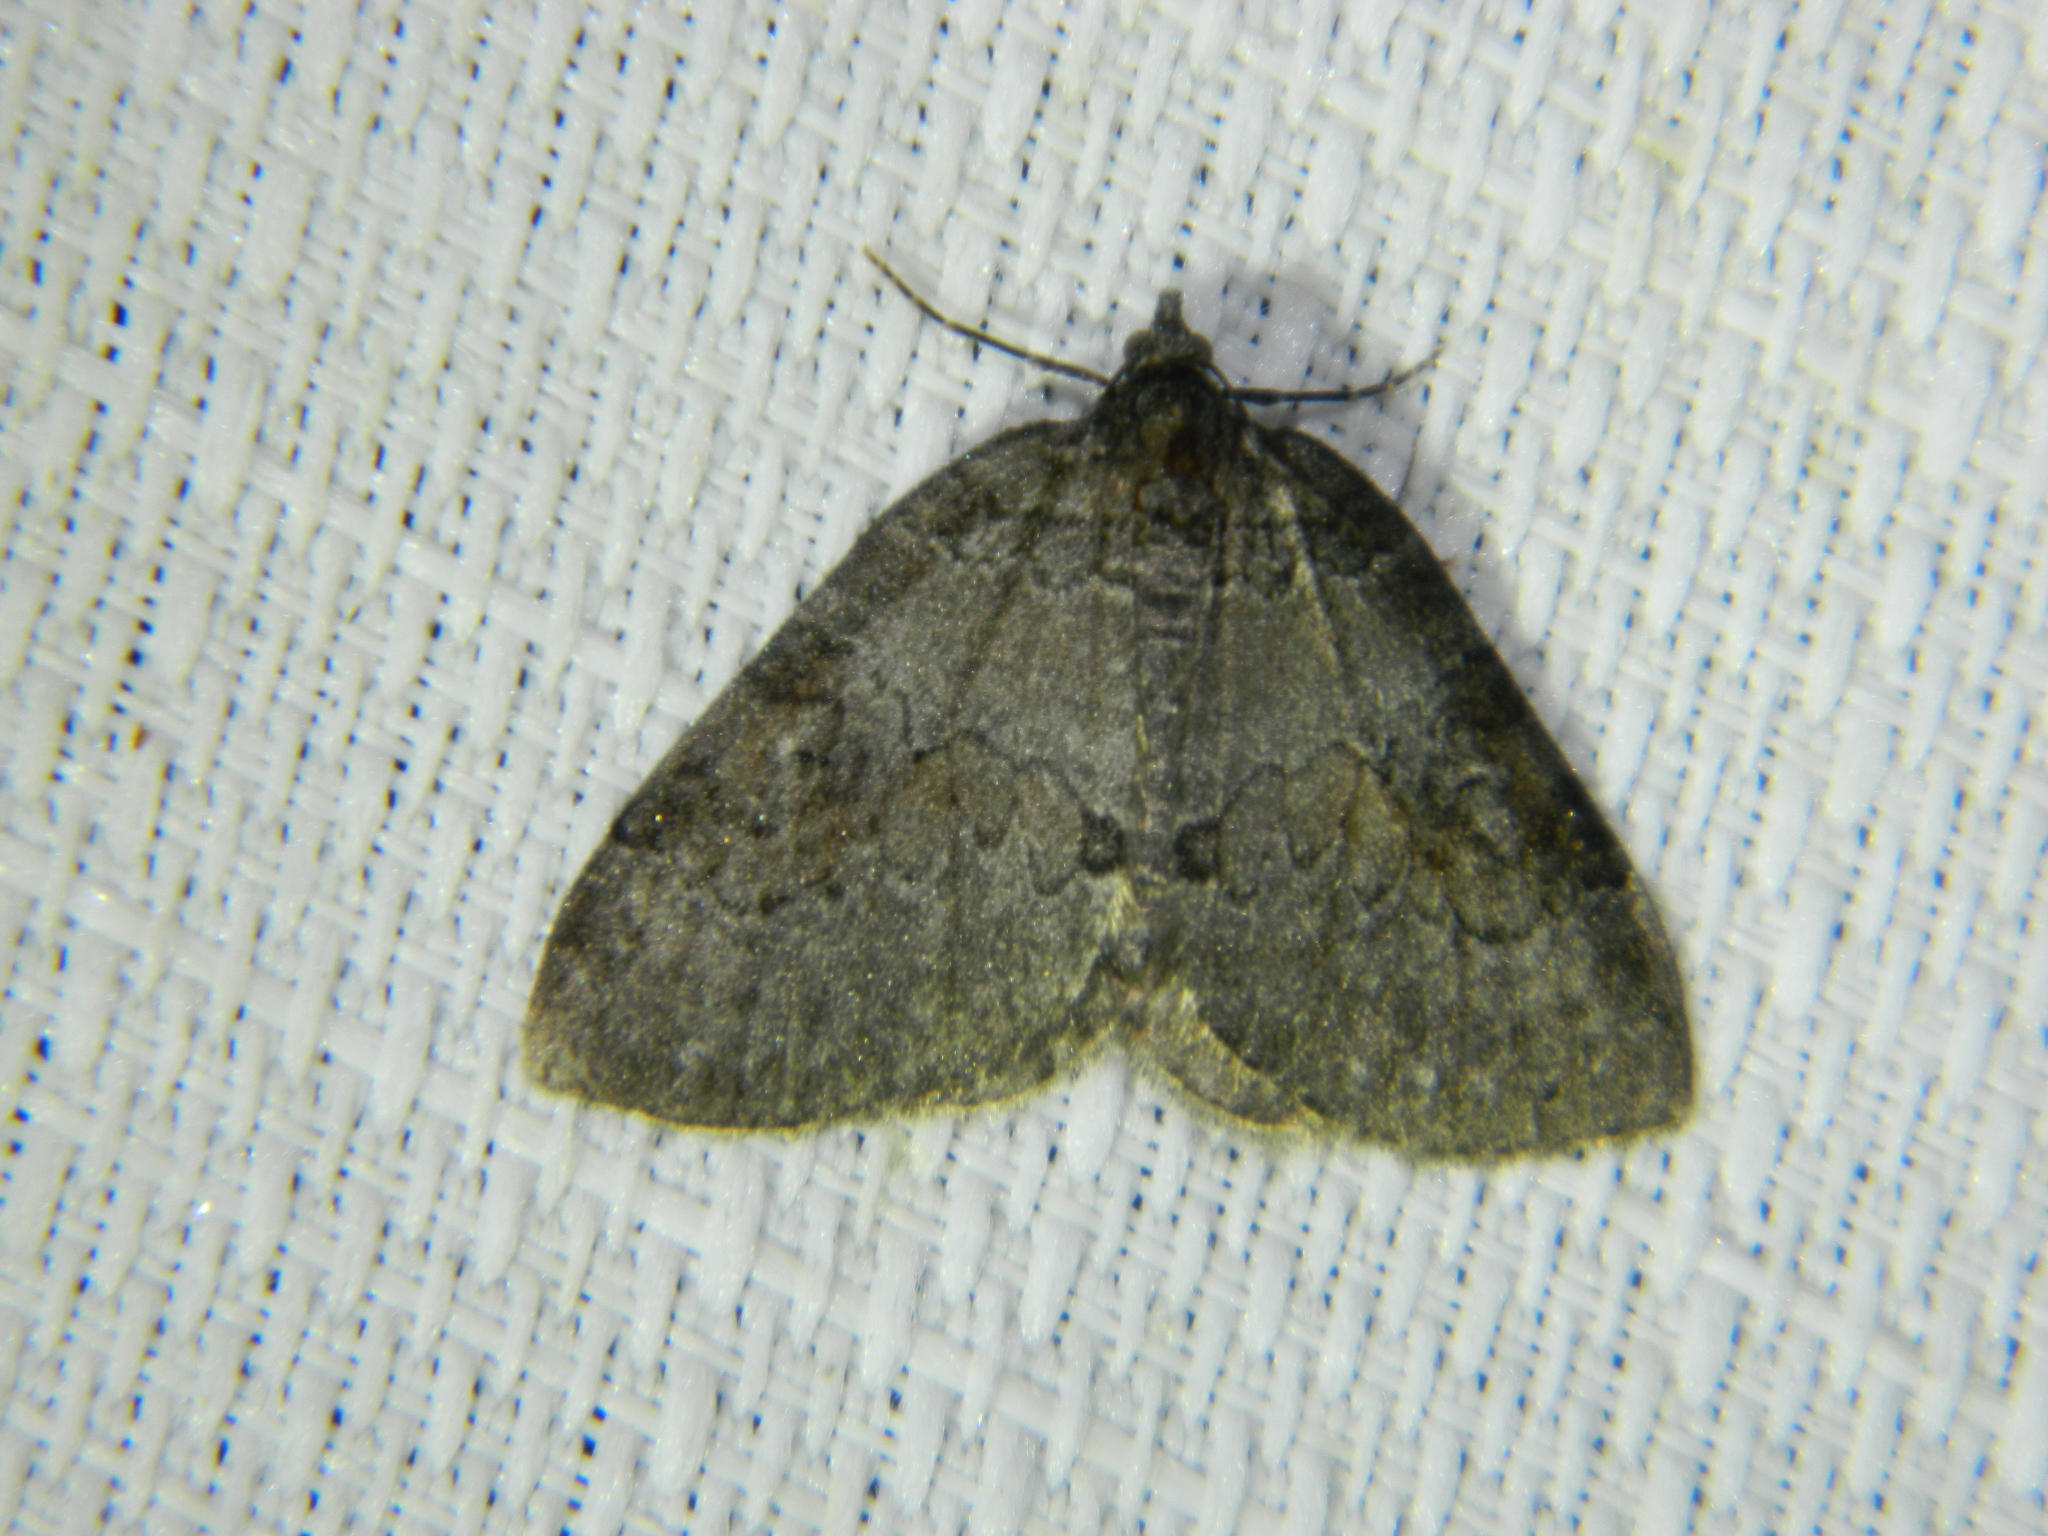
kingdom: Animalia
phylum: Arthropoda
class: Insecta
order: Lepidoptera
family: Geometridae
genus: Plemyria
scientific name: Plemyria georgii
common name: George's carpet moth
